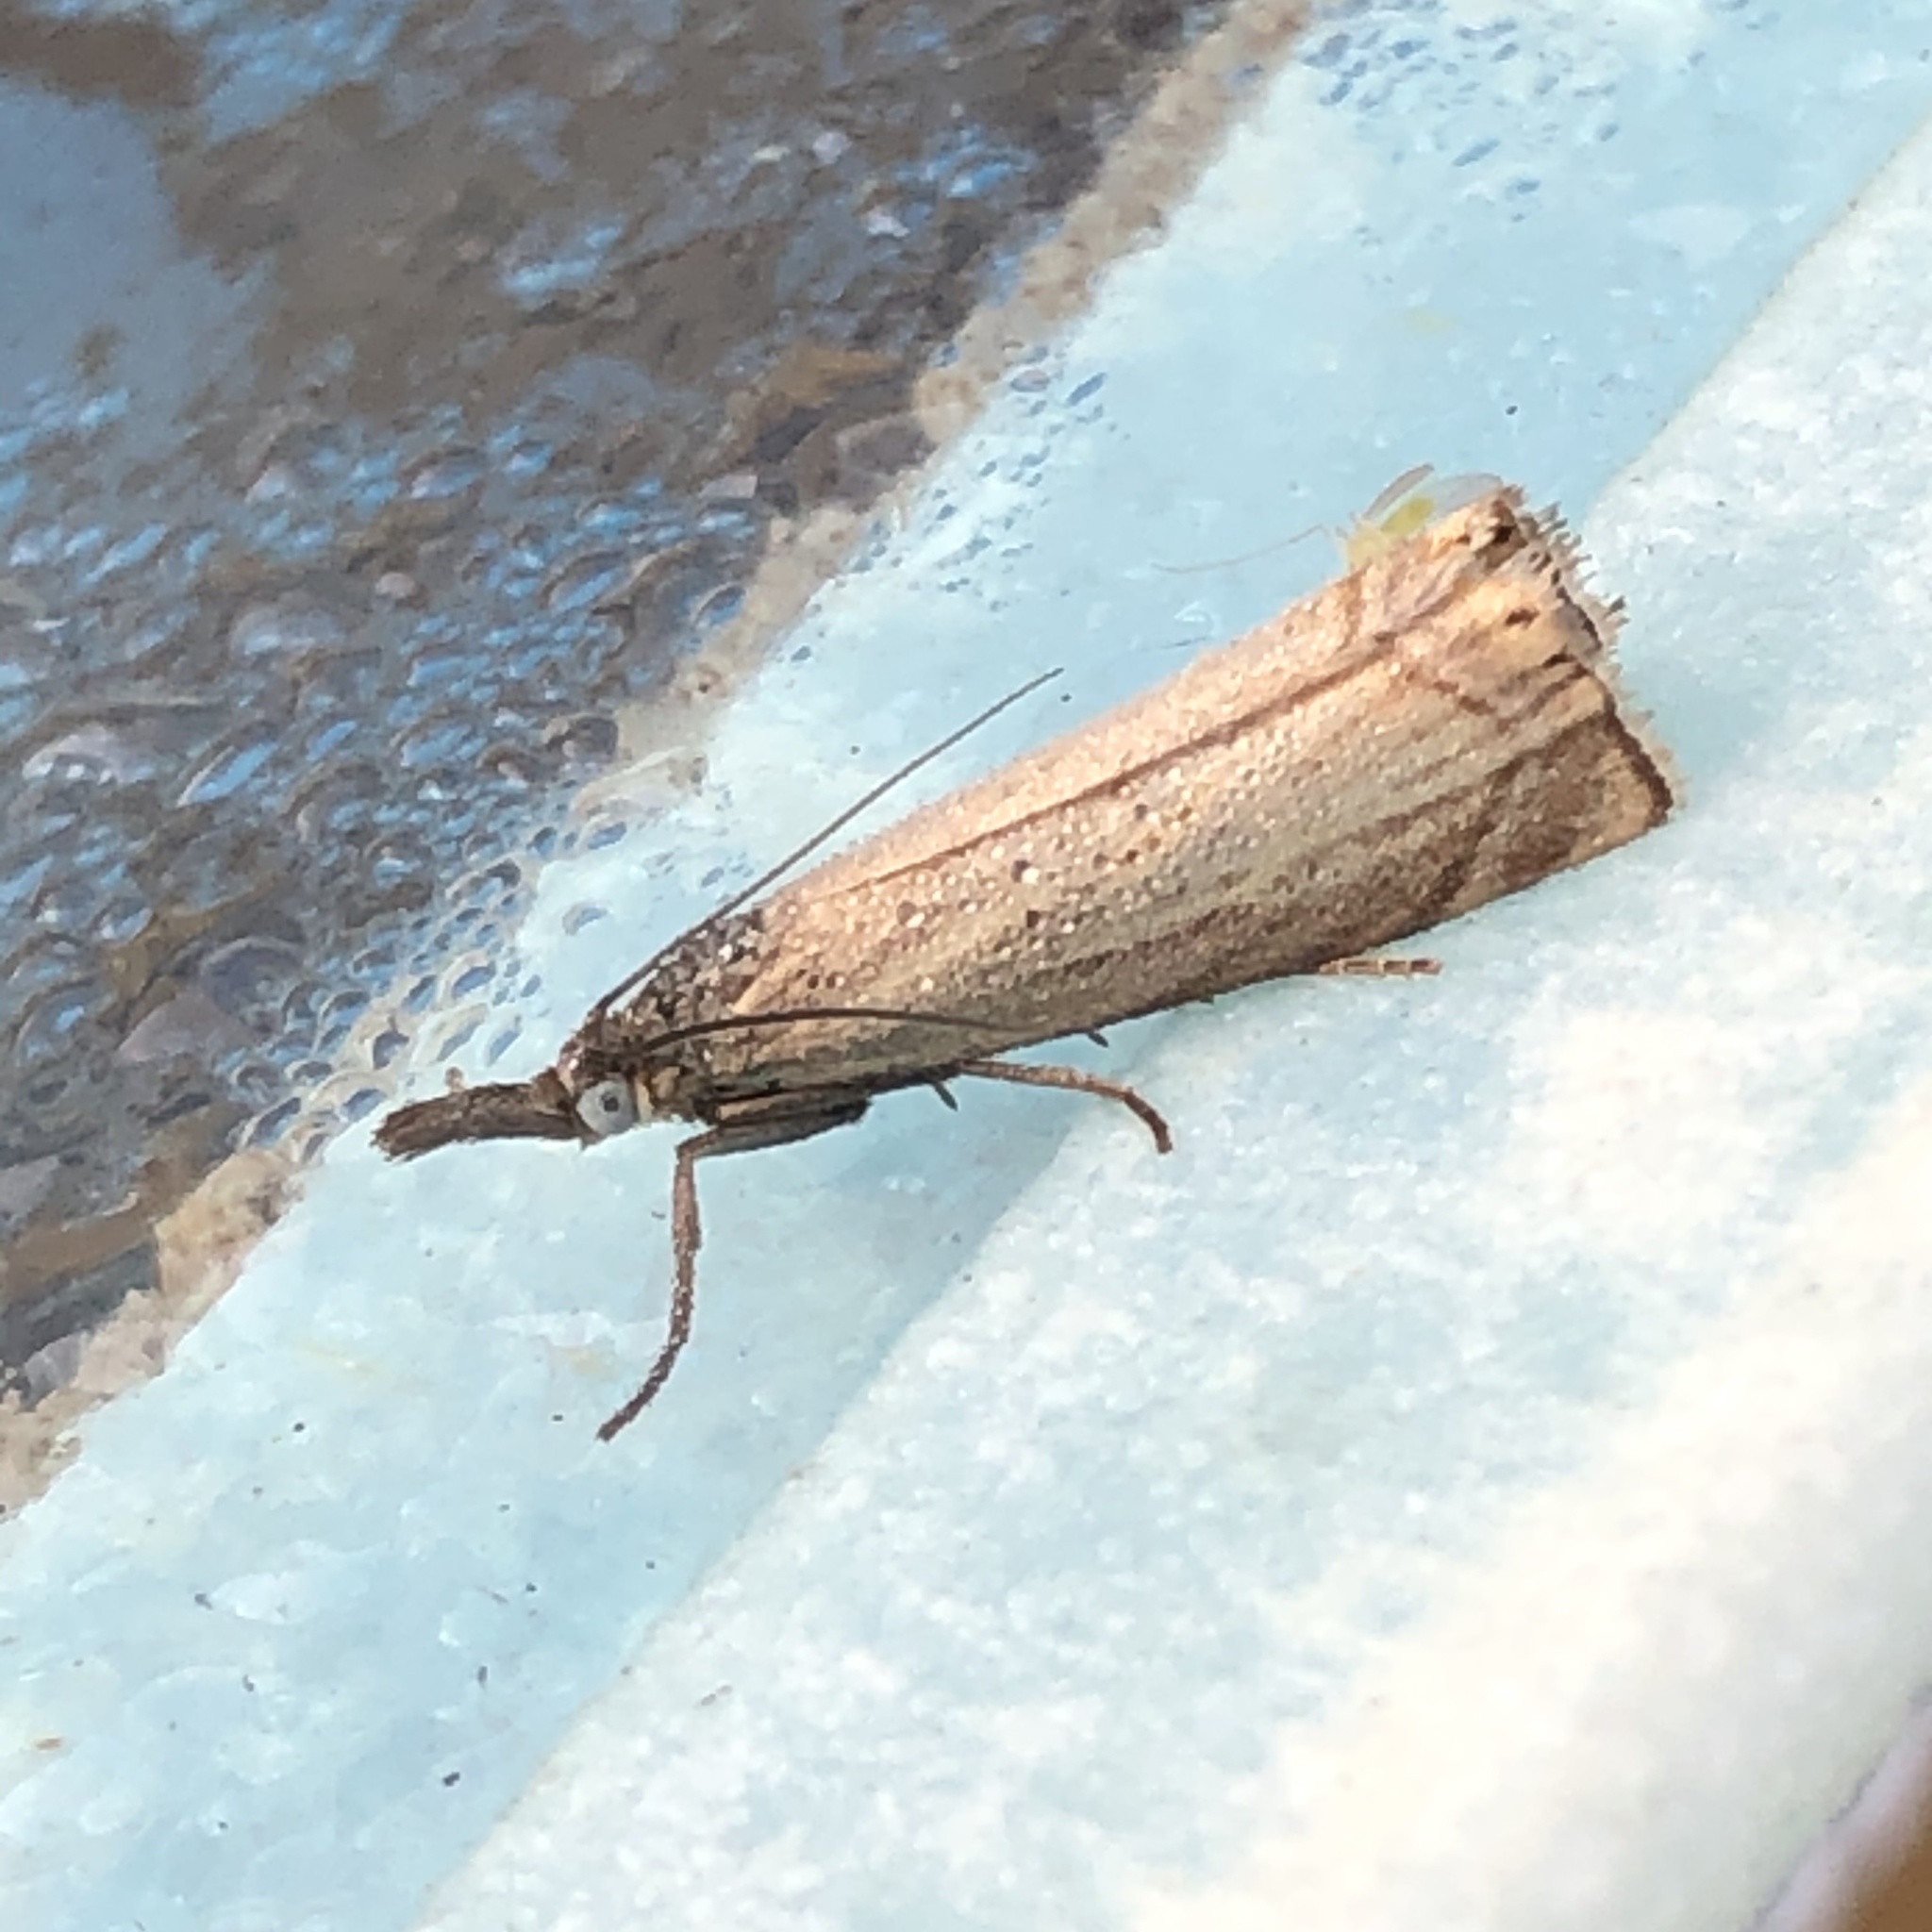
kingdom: Animalia
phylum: Arthropoda
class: Insecta
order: Lepidoptera
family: Crambidae
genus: Chrysoteuchia
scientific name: Chrysoteuchia culmella
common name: Garden grass-veneer
